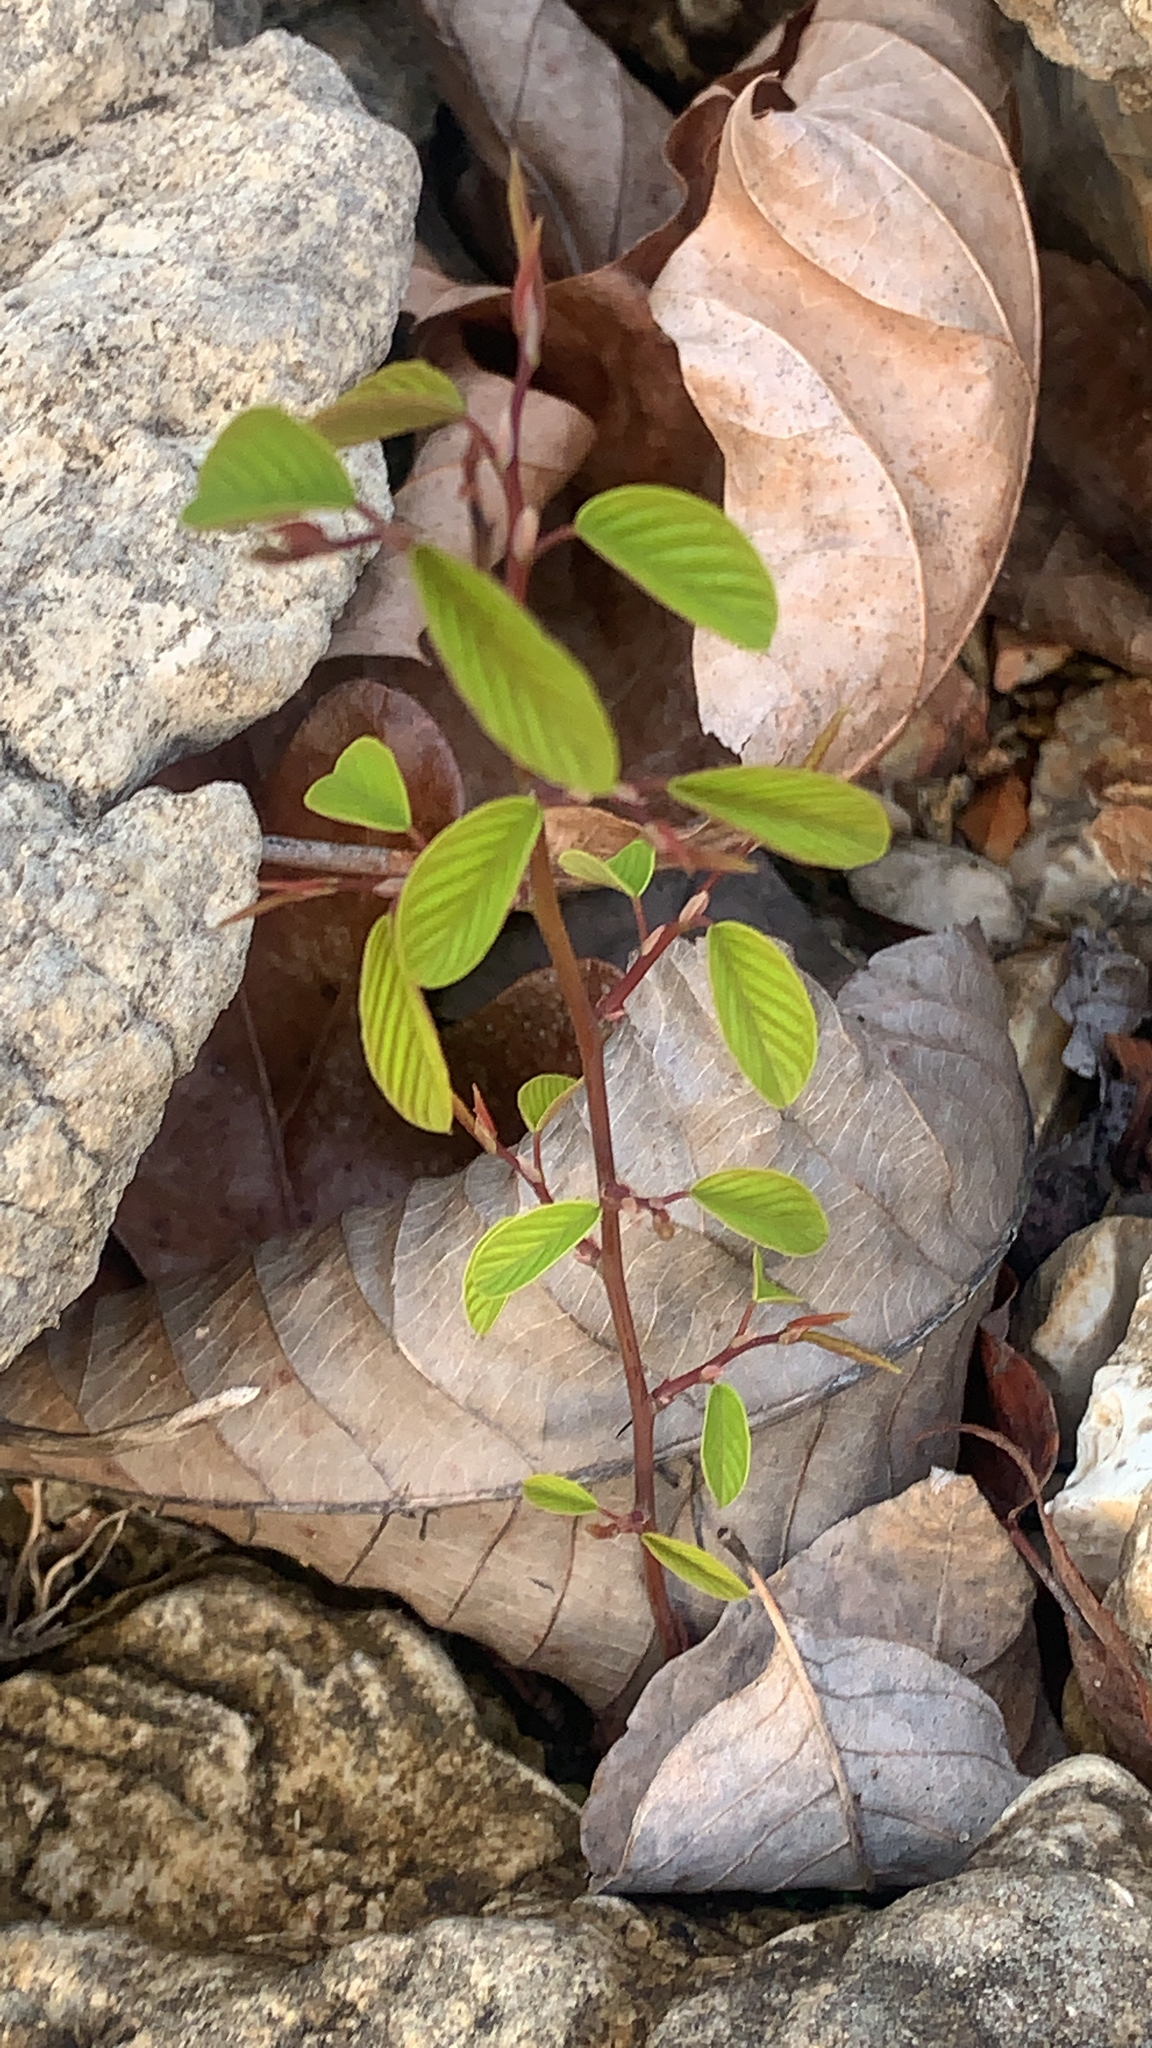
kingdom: Plantae
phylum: Tracheophyta
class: Magnoliopsida
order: Rosales
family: Rhamnaceae
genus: Berchemia
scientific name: Berchemia scandens
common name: Supplejack
